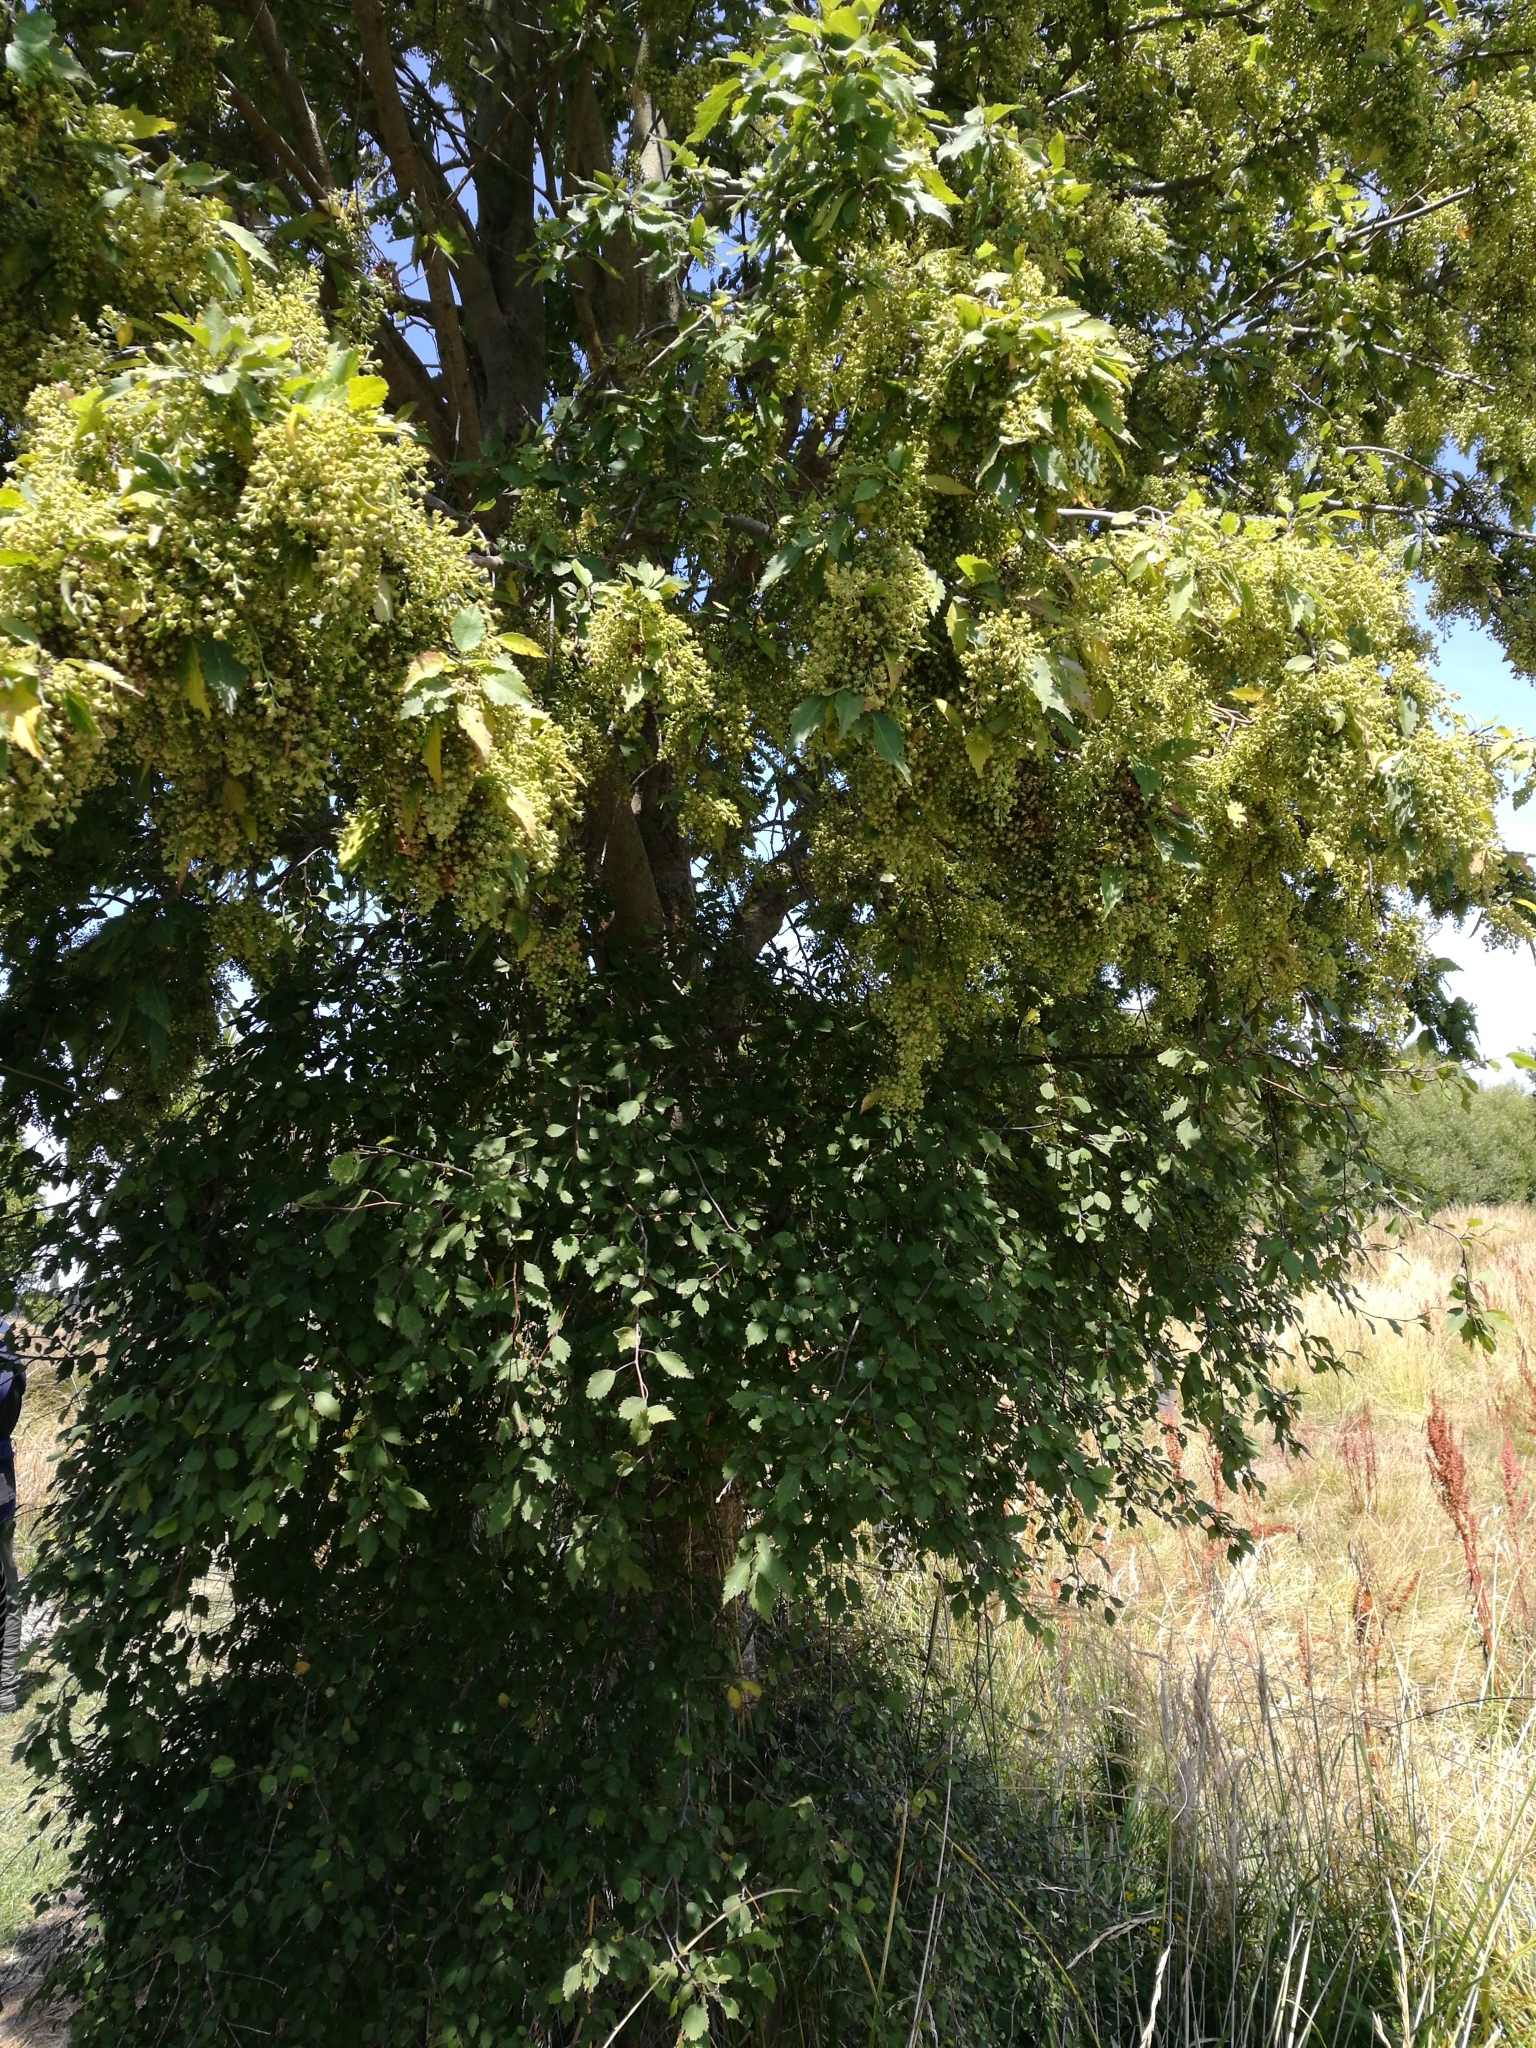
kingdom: Plantae
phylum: Tracheophyta
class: Magnoliopsida
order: Malvales
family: Malvaceae
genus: Plagianthus
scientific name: Plagianthus regius
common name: Manatu
